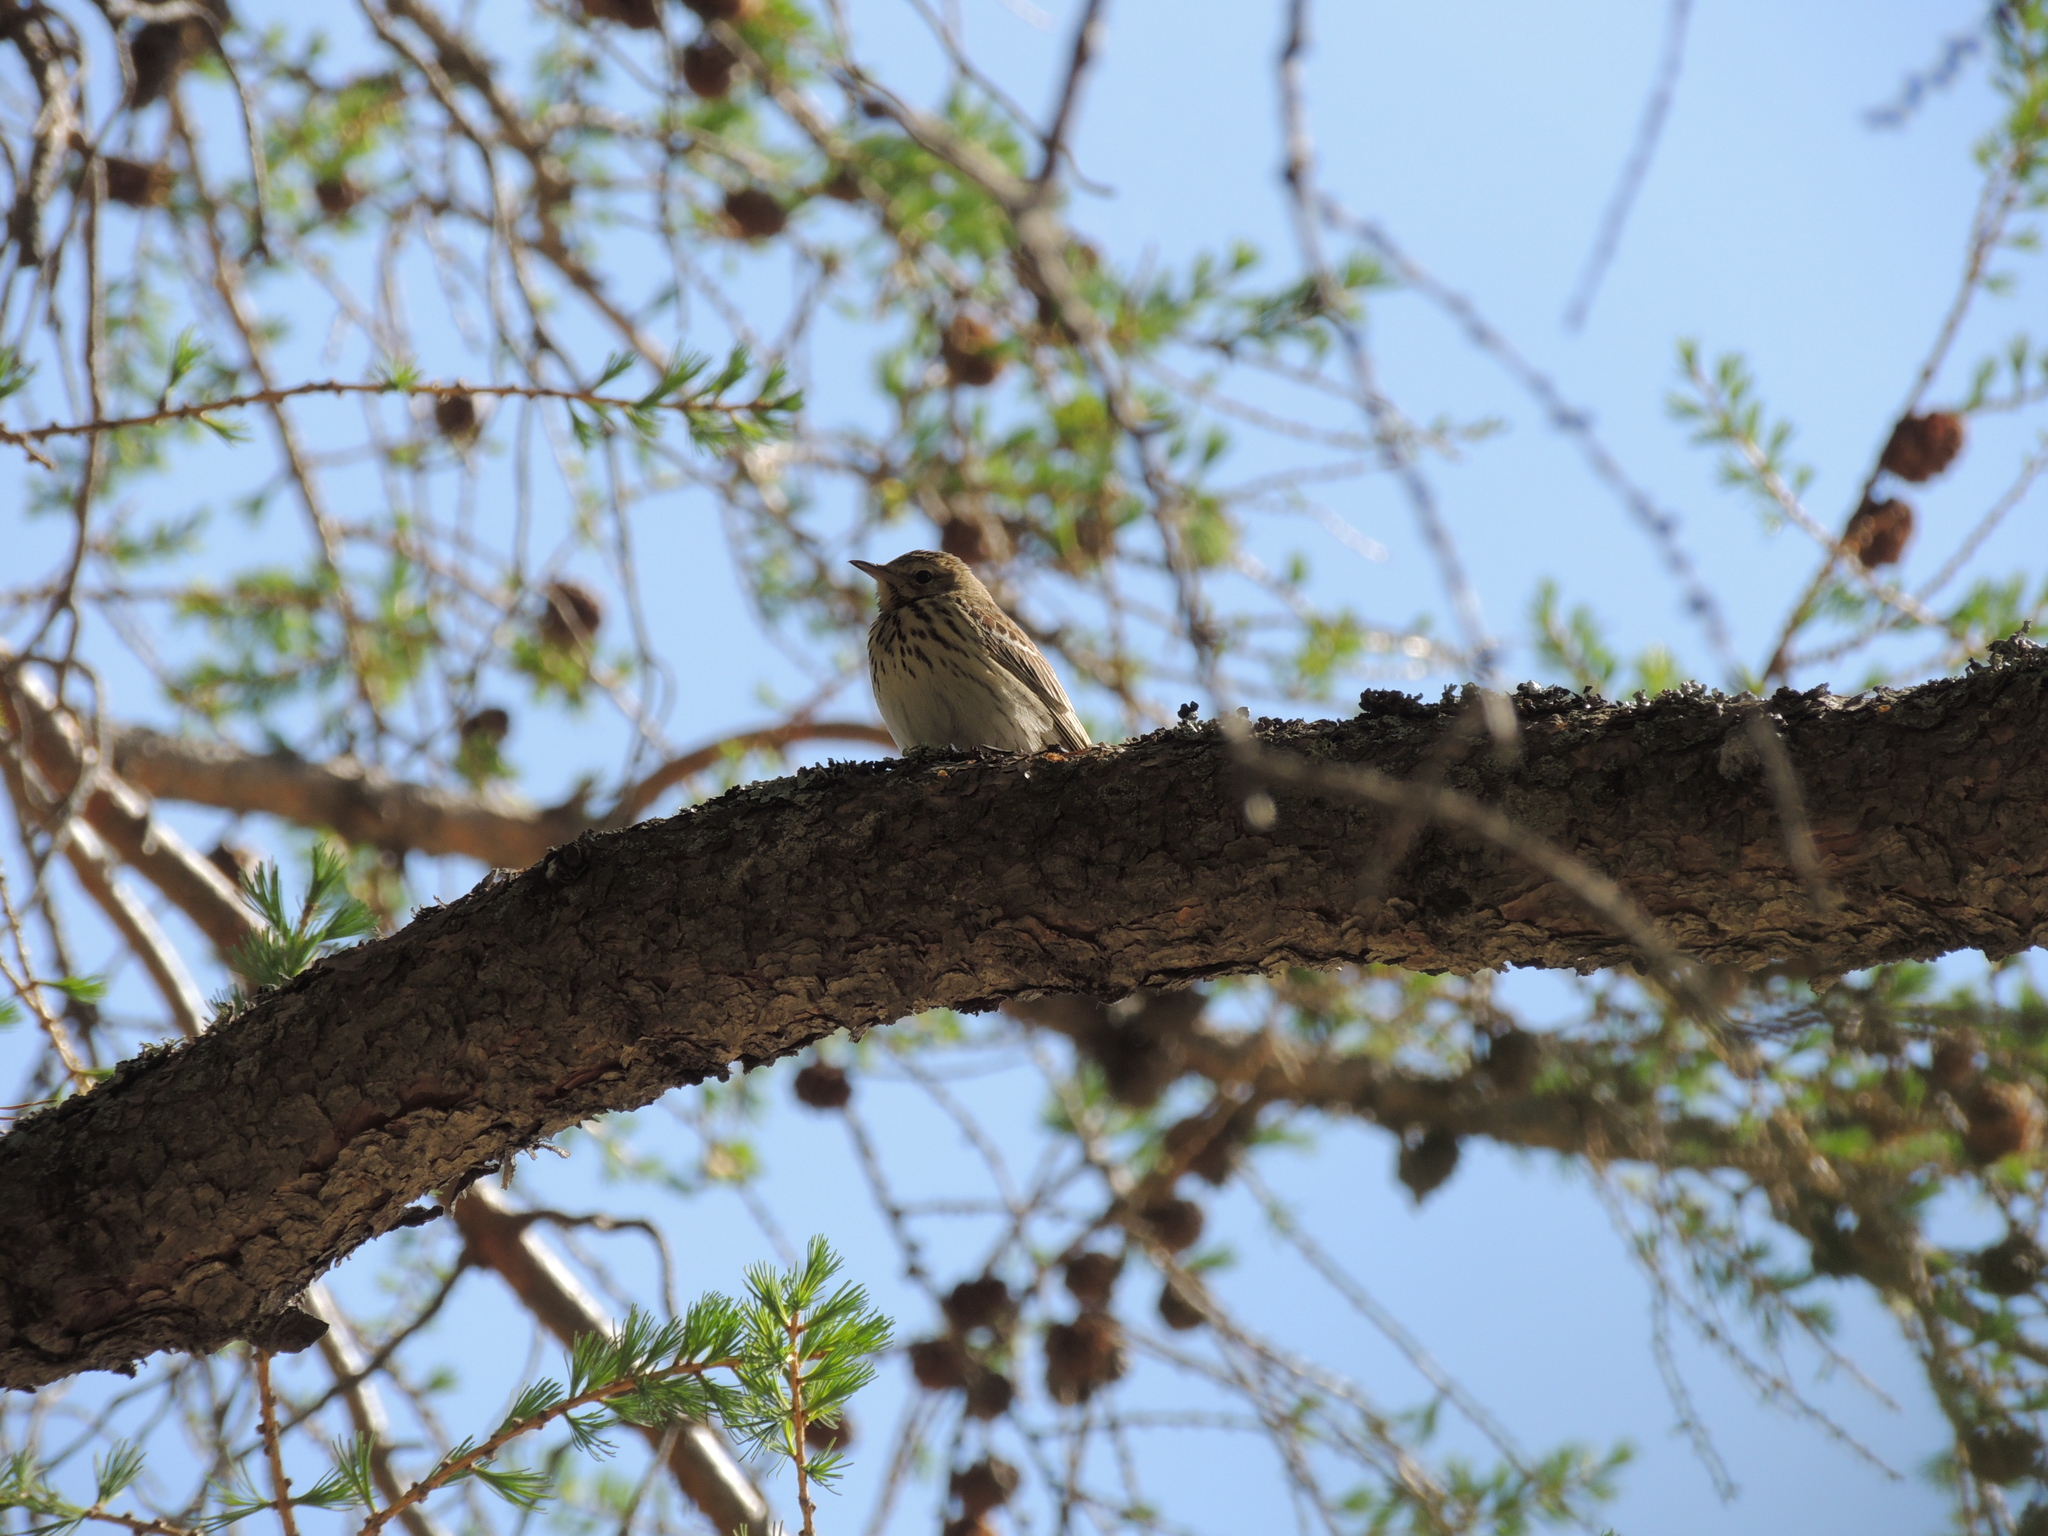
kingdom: Animalia
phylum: Chordata
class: Aves
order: Passeriformes
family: Motacillidae
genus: Anthus
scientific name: Anthus trivialis
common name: Tree pipit
